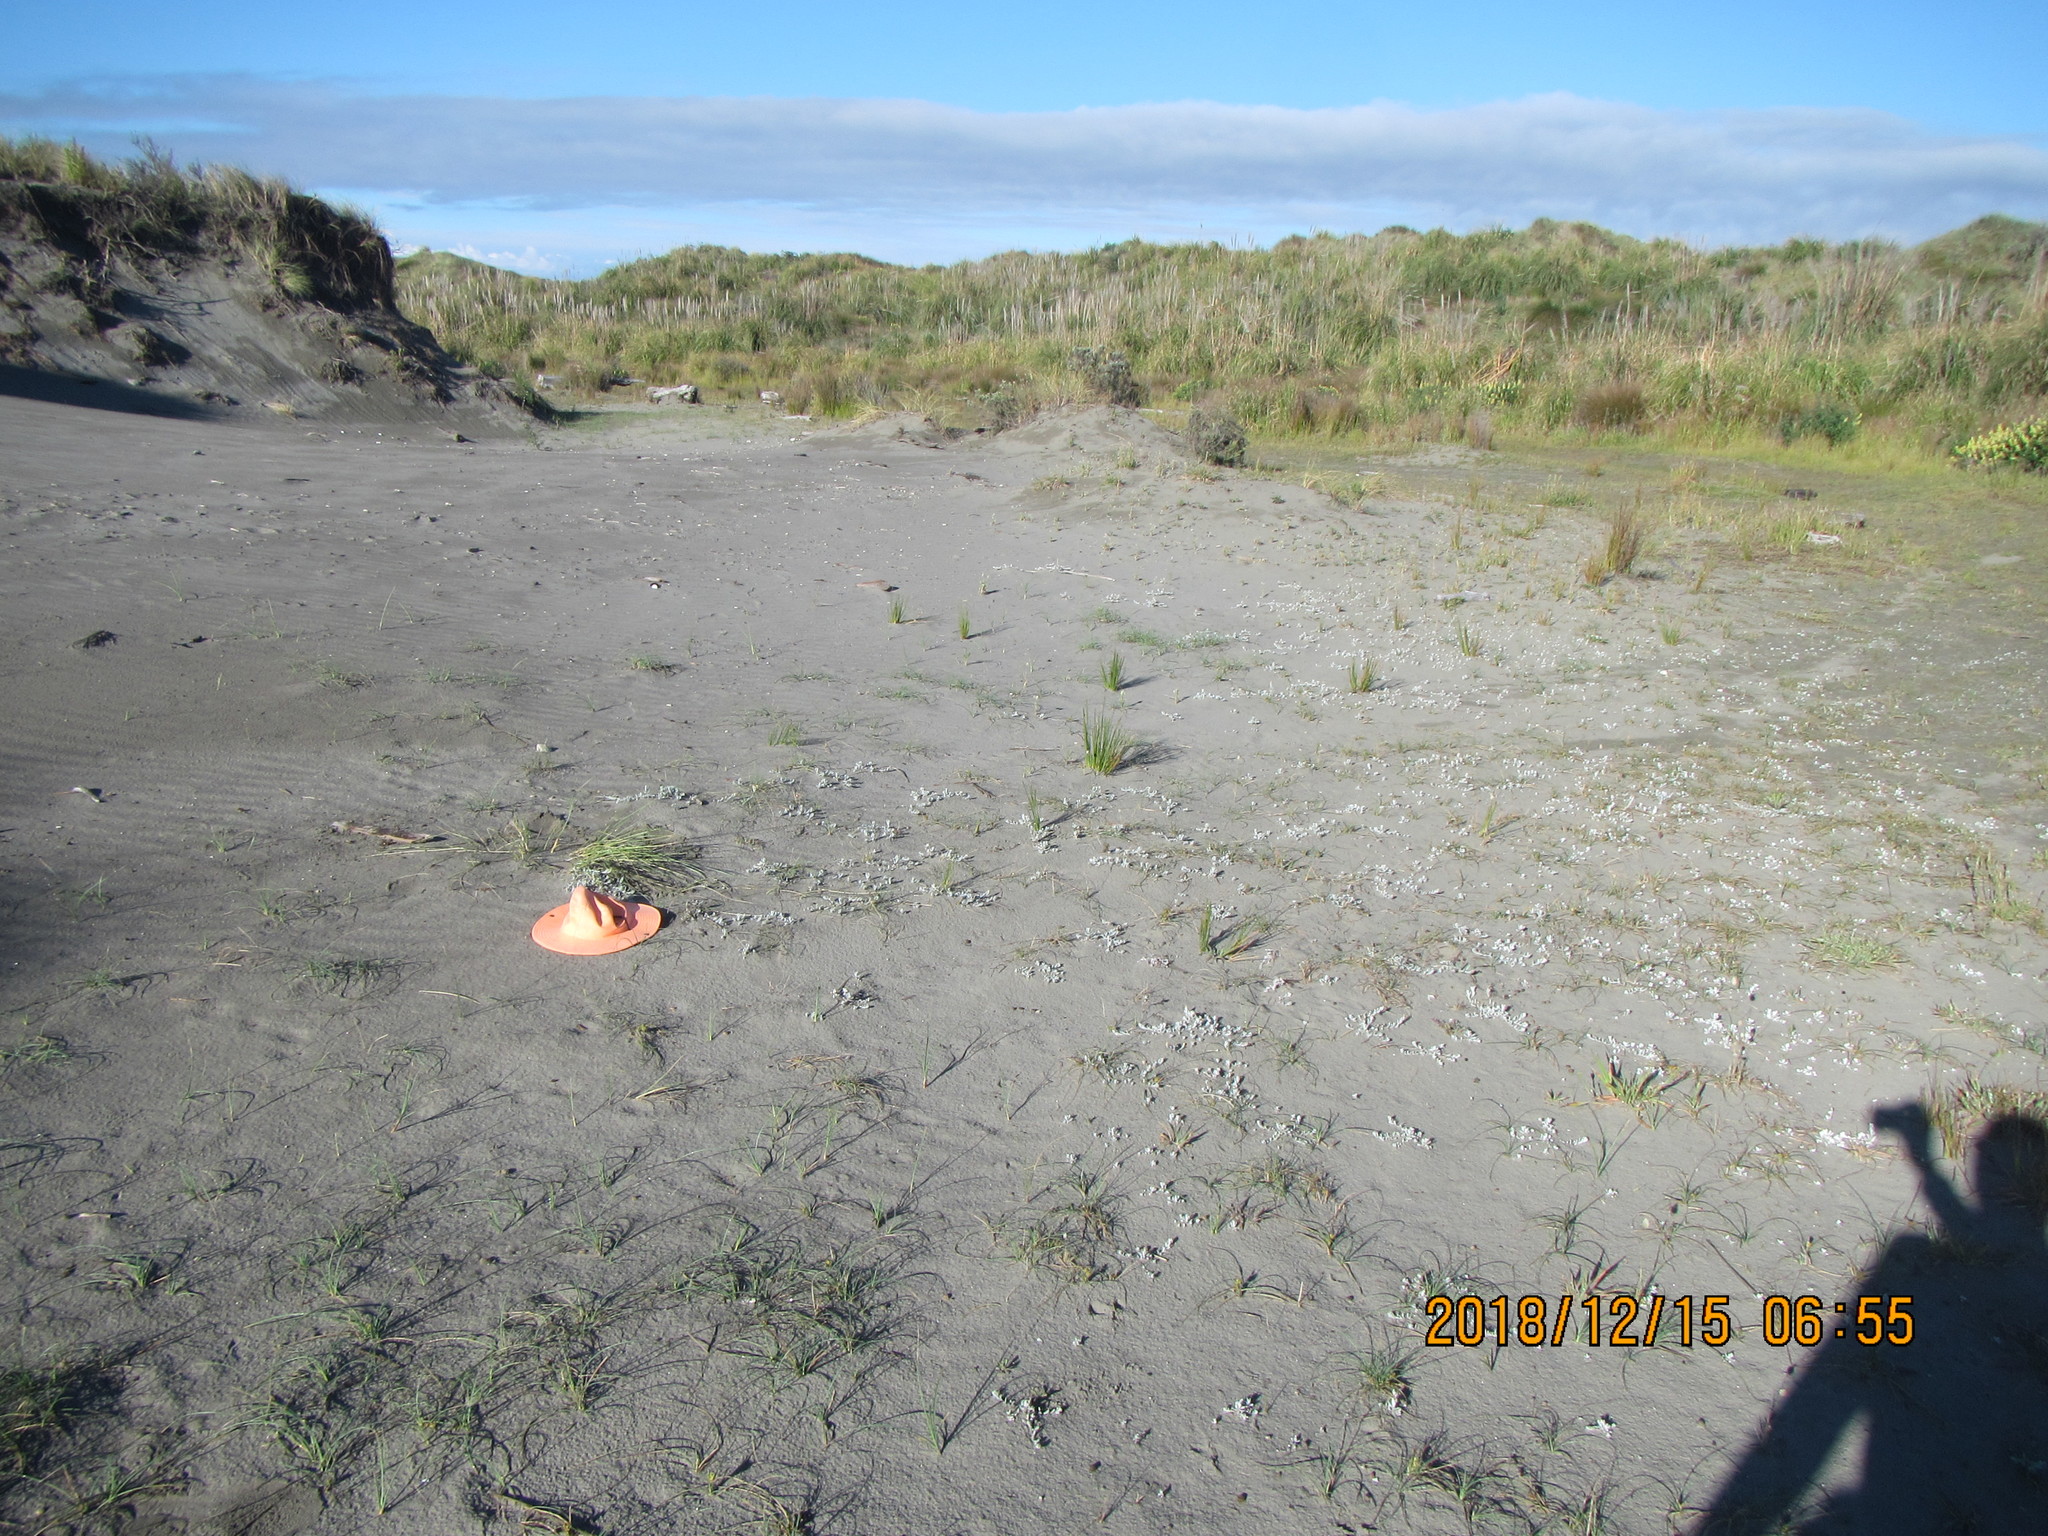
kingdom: Plantae
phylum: Tracheophyta
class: Magnoliopsida
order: Asterales
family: Asteraceae
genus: Helichrysum
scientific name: Helichrysum luteoalbum
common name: Daisy
